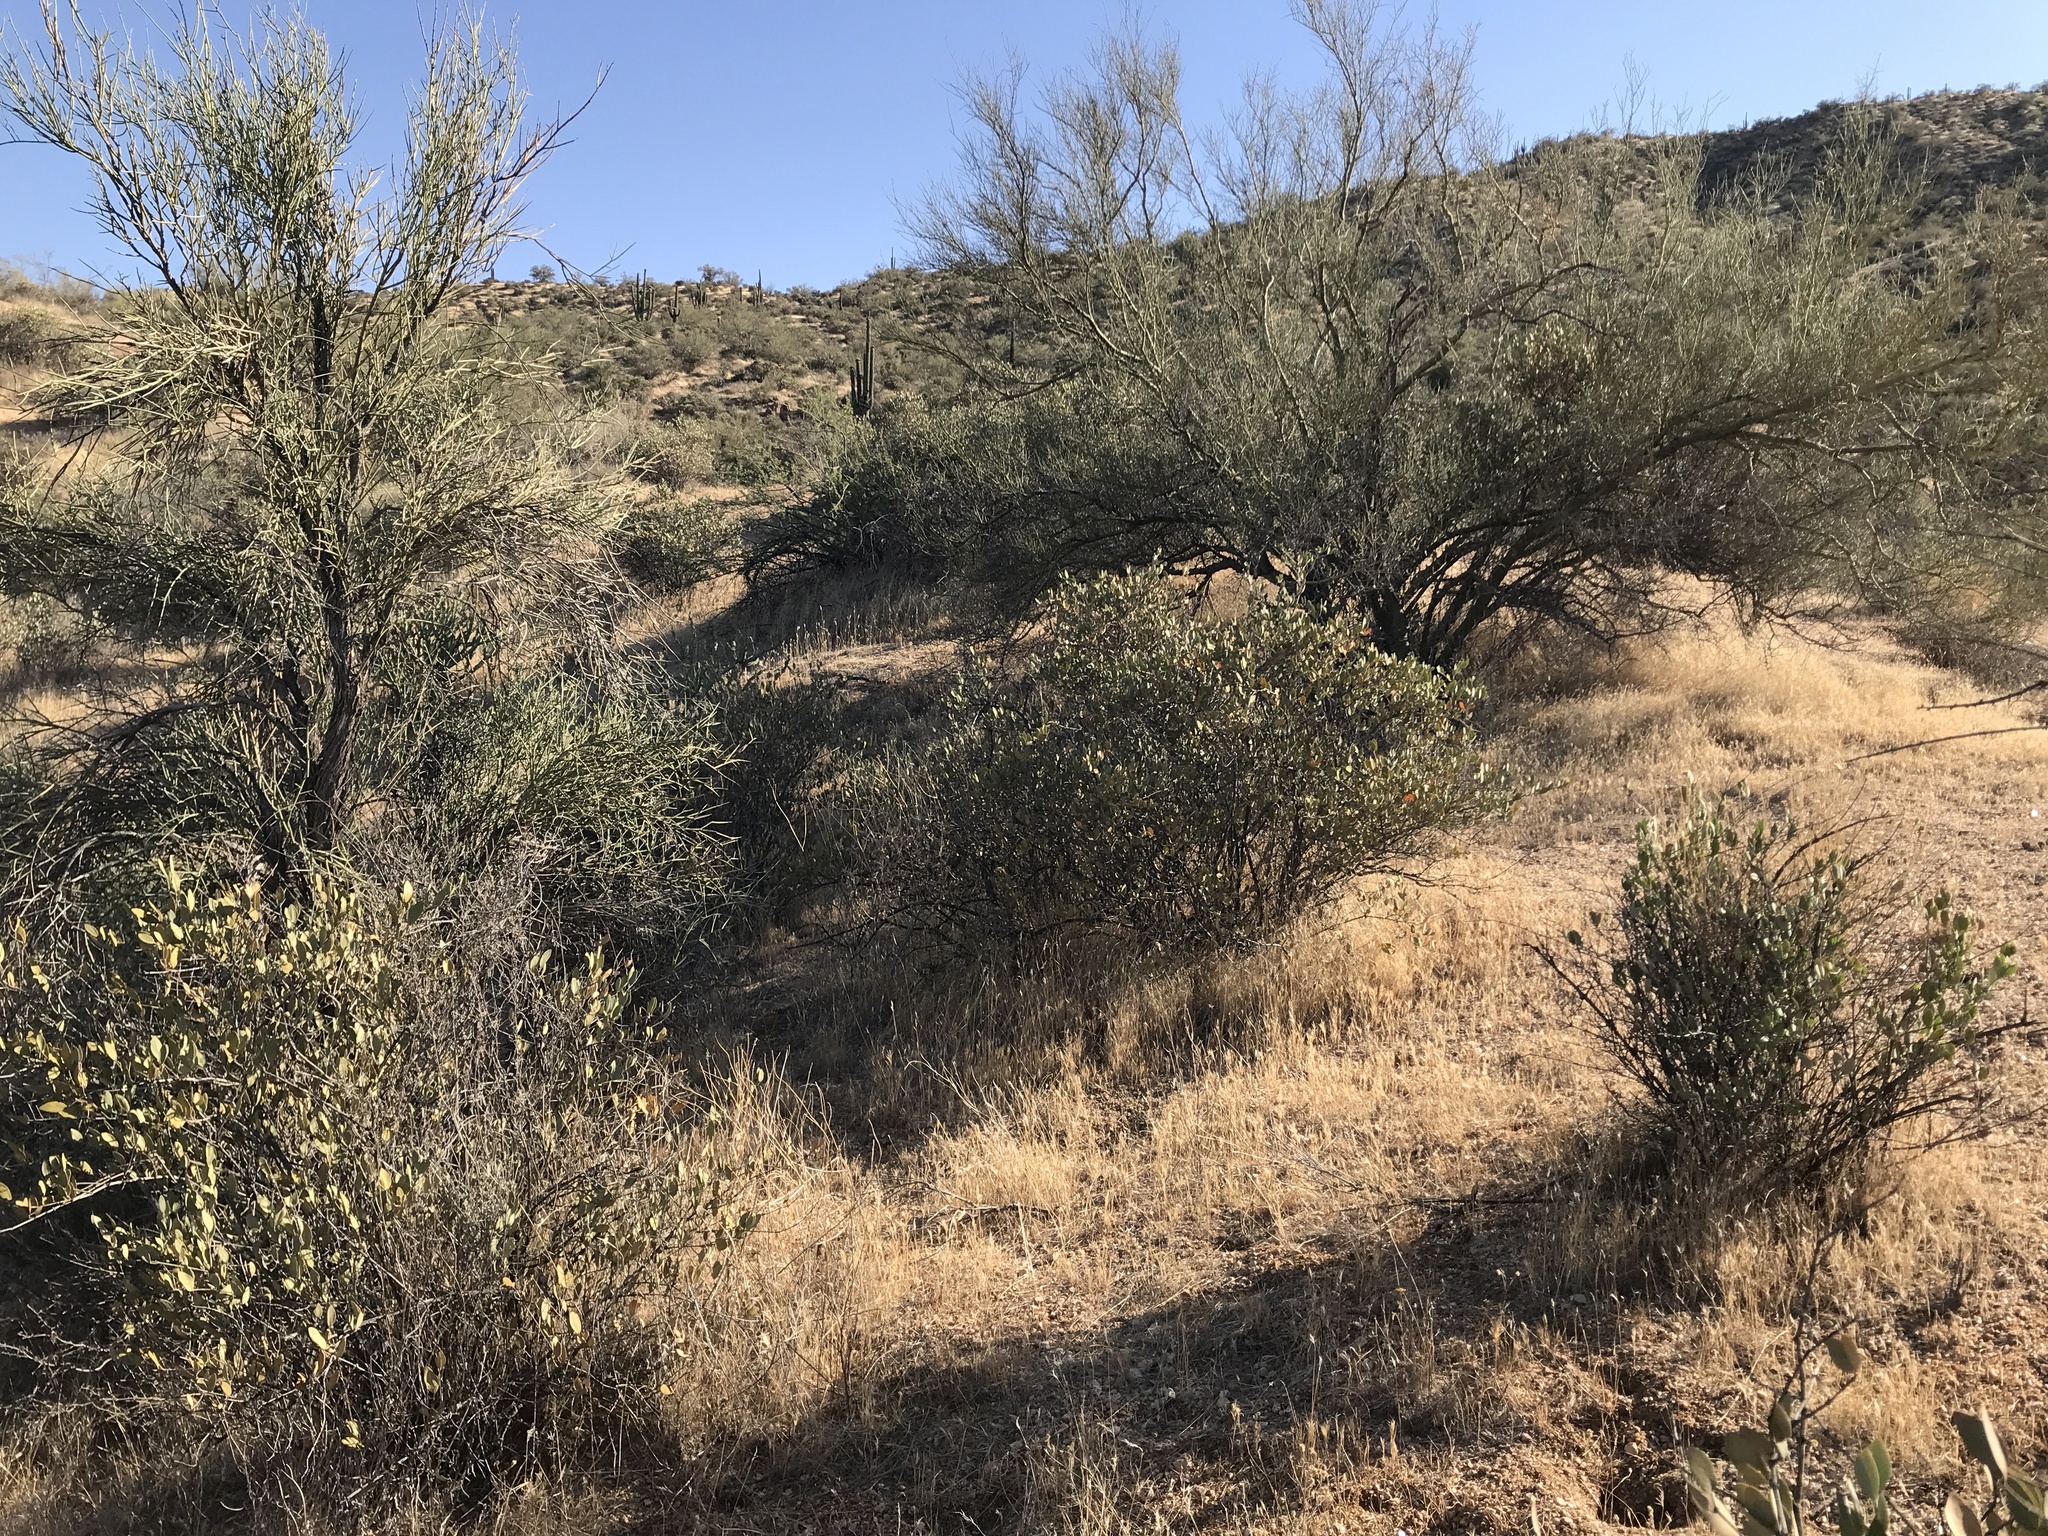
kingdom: Plantae
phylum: Tracheophyta
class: Magnoliopsida
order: Caryophyllales
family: Simmondsiaceae
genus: Simmondsia
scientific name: Simmondsia chinensis
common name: Jojoba
